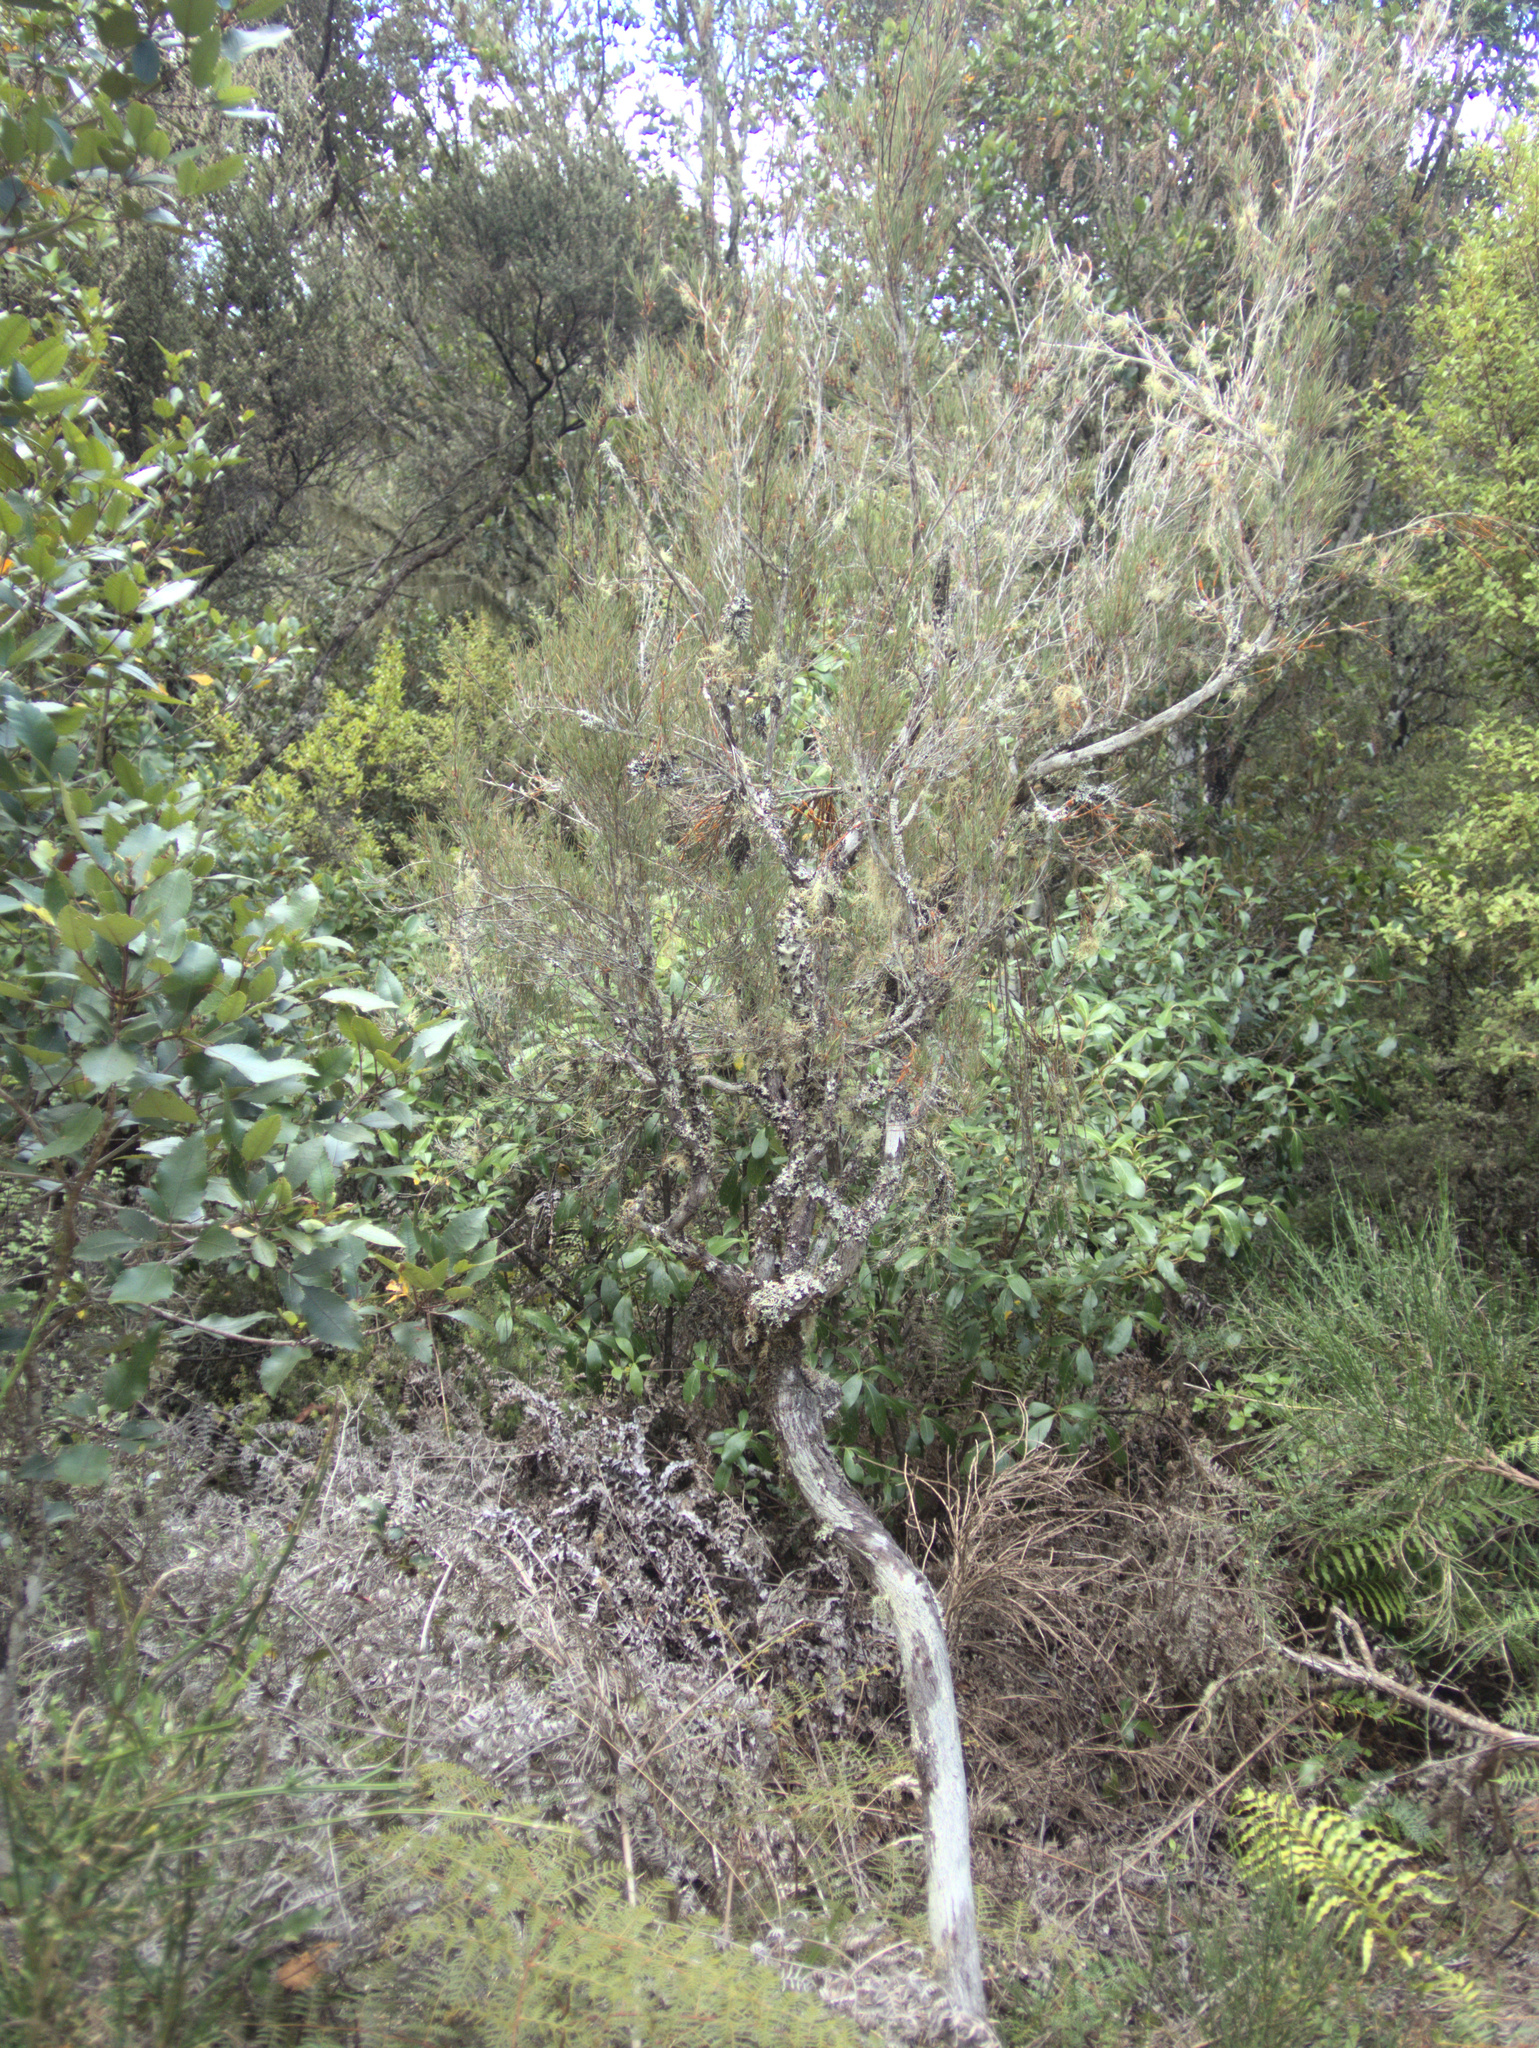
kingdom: Plantae
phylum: Tracheophyta
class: Magnoliopsida
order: Ericales
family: Ericaceae
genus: Dracophyllum
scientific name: Dracophyllum subulatum
